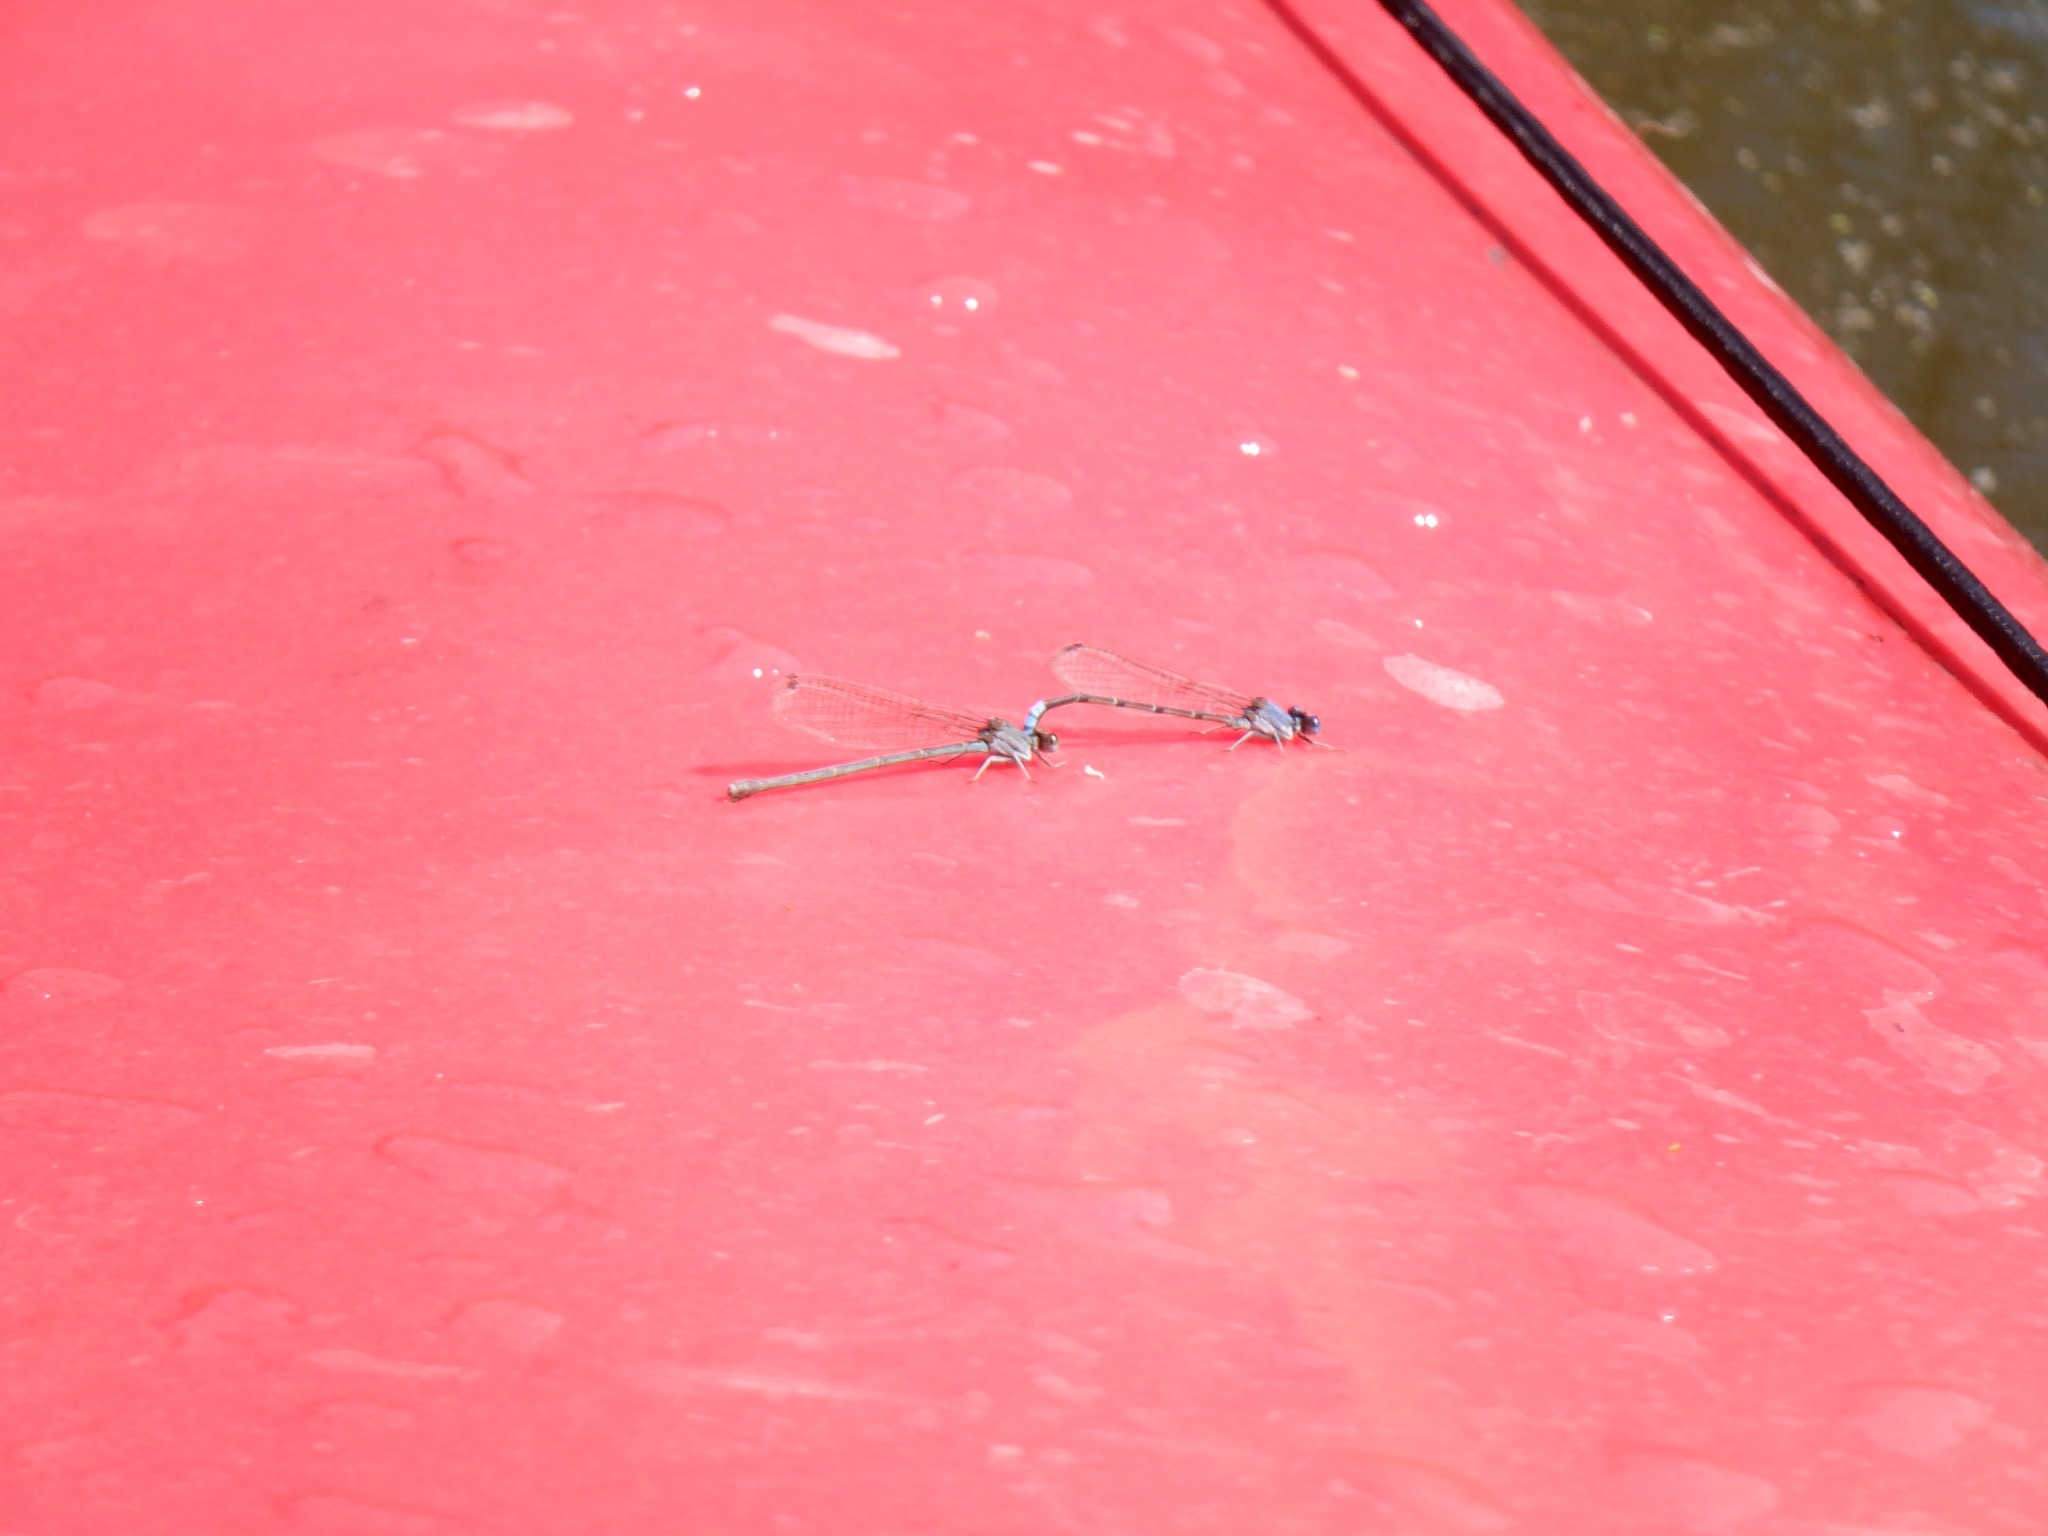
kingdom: Animalia
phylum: Arthropoda
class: Insecta
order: Odonata
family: Coenagrionidae
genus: Argia
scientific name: Argia apicalis
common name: Blue-fronted dancer
